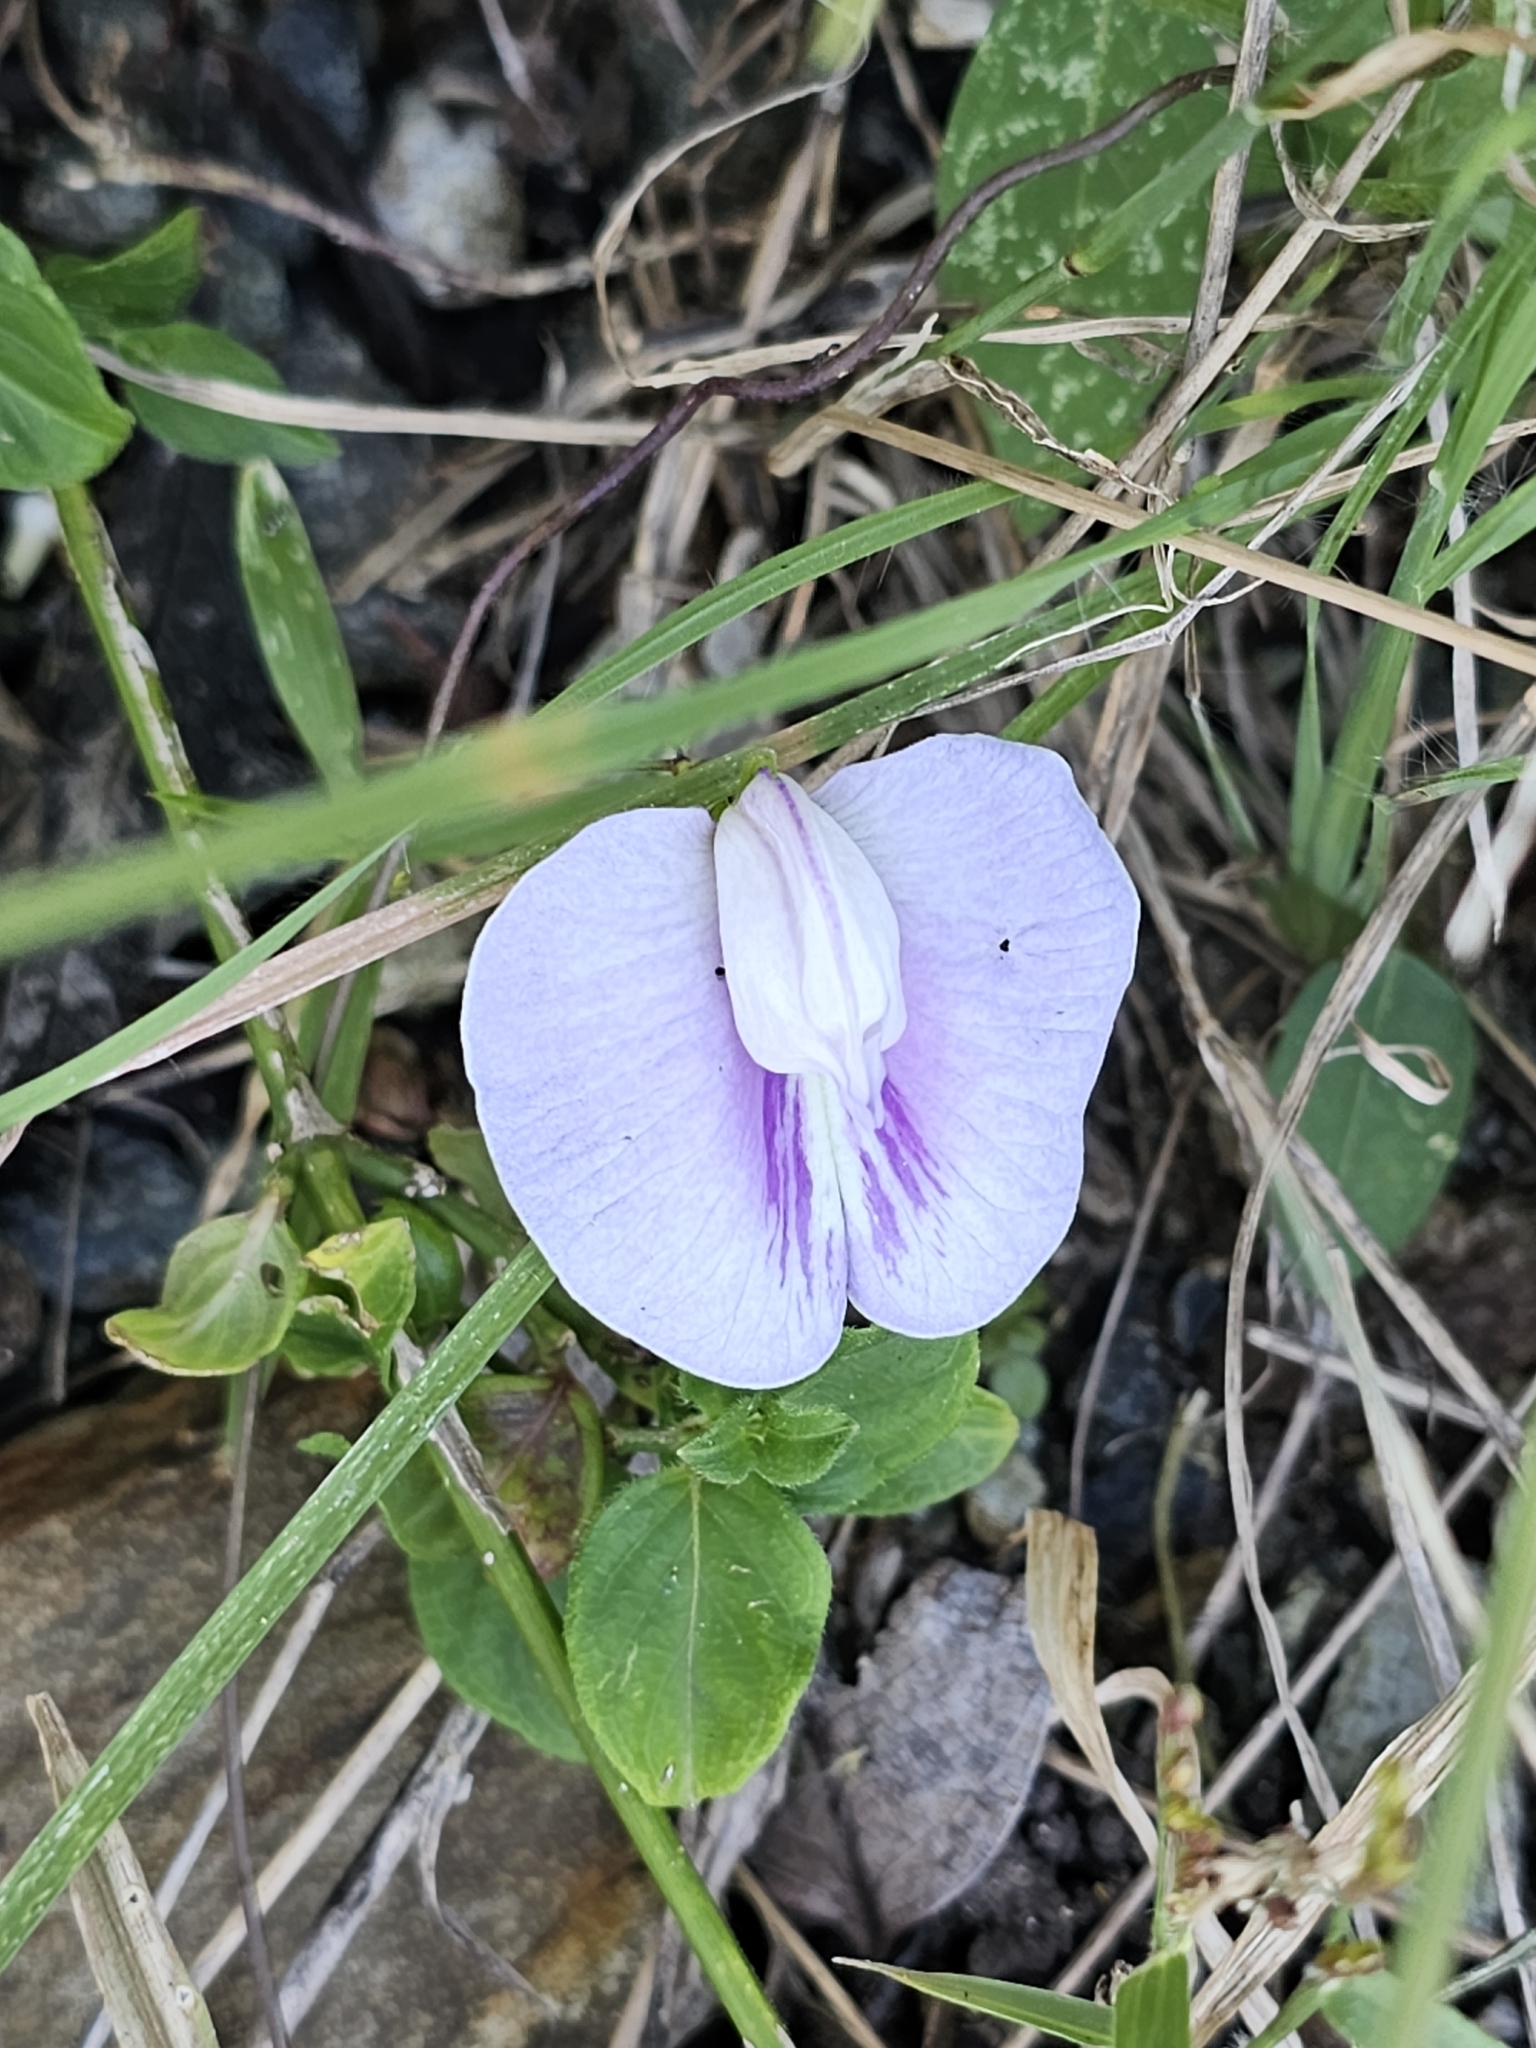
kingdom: Plantae
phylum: Tracheophyta
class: Magnoliopsida
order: Fabales
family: Fabaceae
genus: Centrosema
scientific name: Centrosema virginianum
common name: Butterfly-pea
